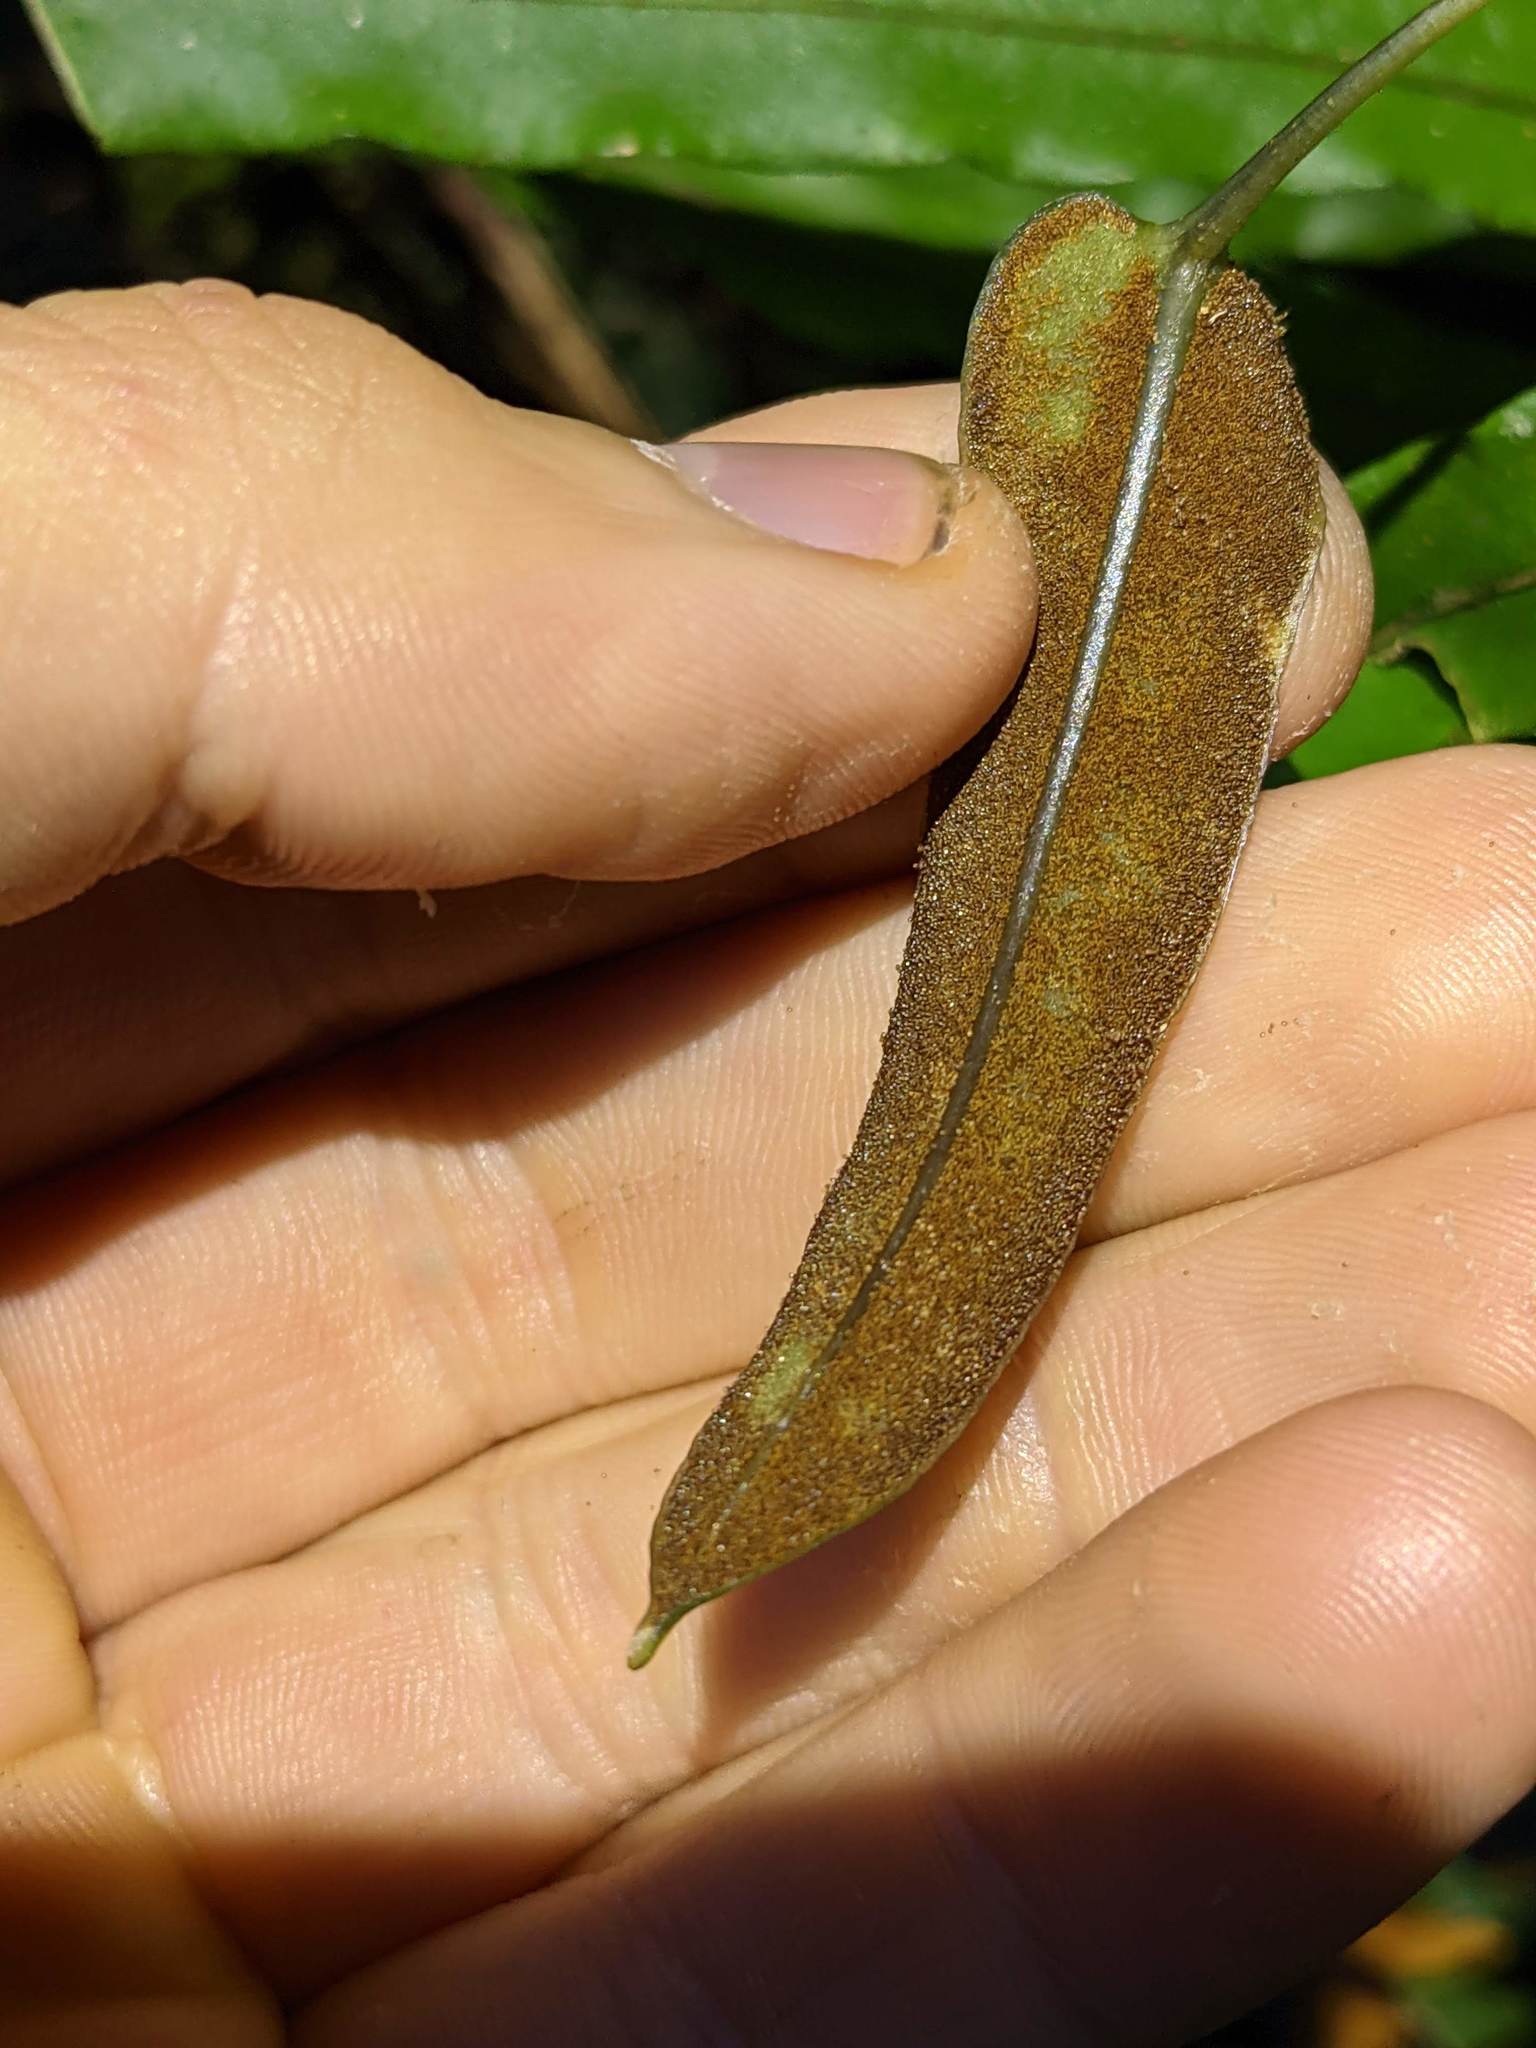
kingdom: Plantae
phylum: Tracheophyta
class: Polypodiopsida
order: Polypodiales
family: Dryopteridaceae
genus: Elaphoglossum
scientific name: Elaphoglossum eximium
